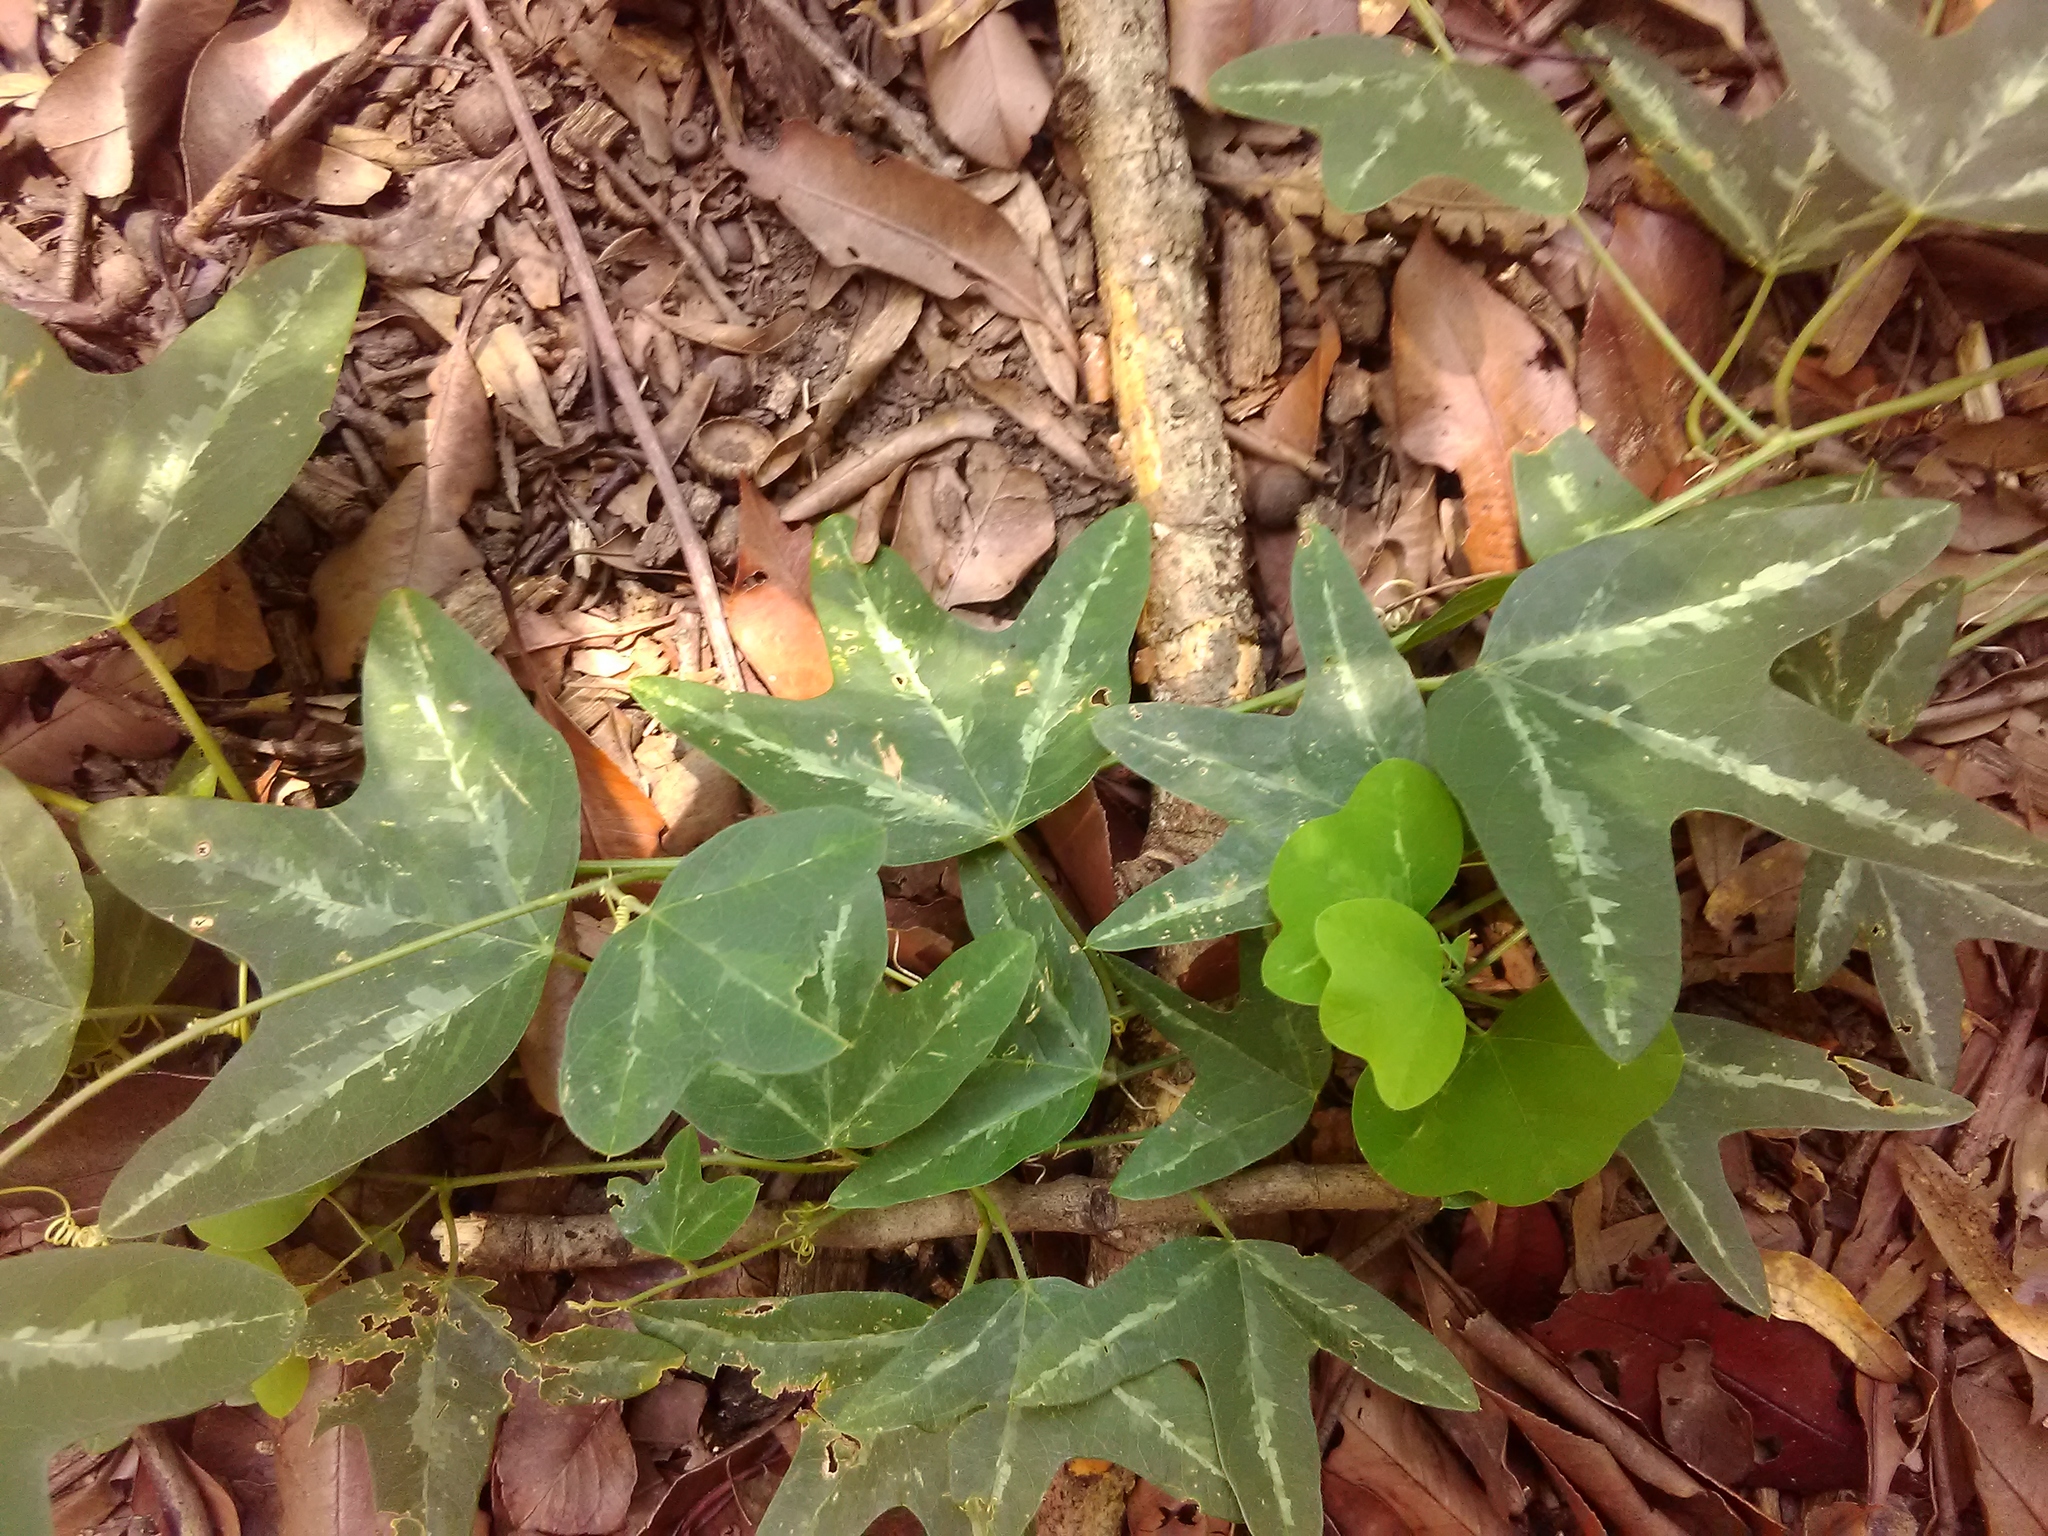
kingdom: Plantae
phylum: Tracheophyta
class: Magnoliopsida
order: Malpighiales
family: Passifloraceae
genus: Passiflora
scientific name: Passiflora lutea
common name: Yellow passionflower
